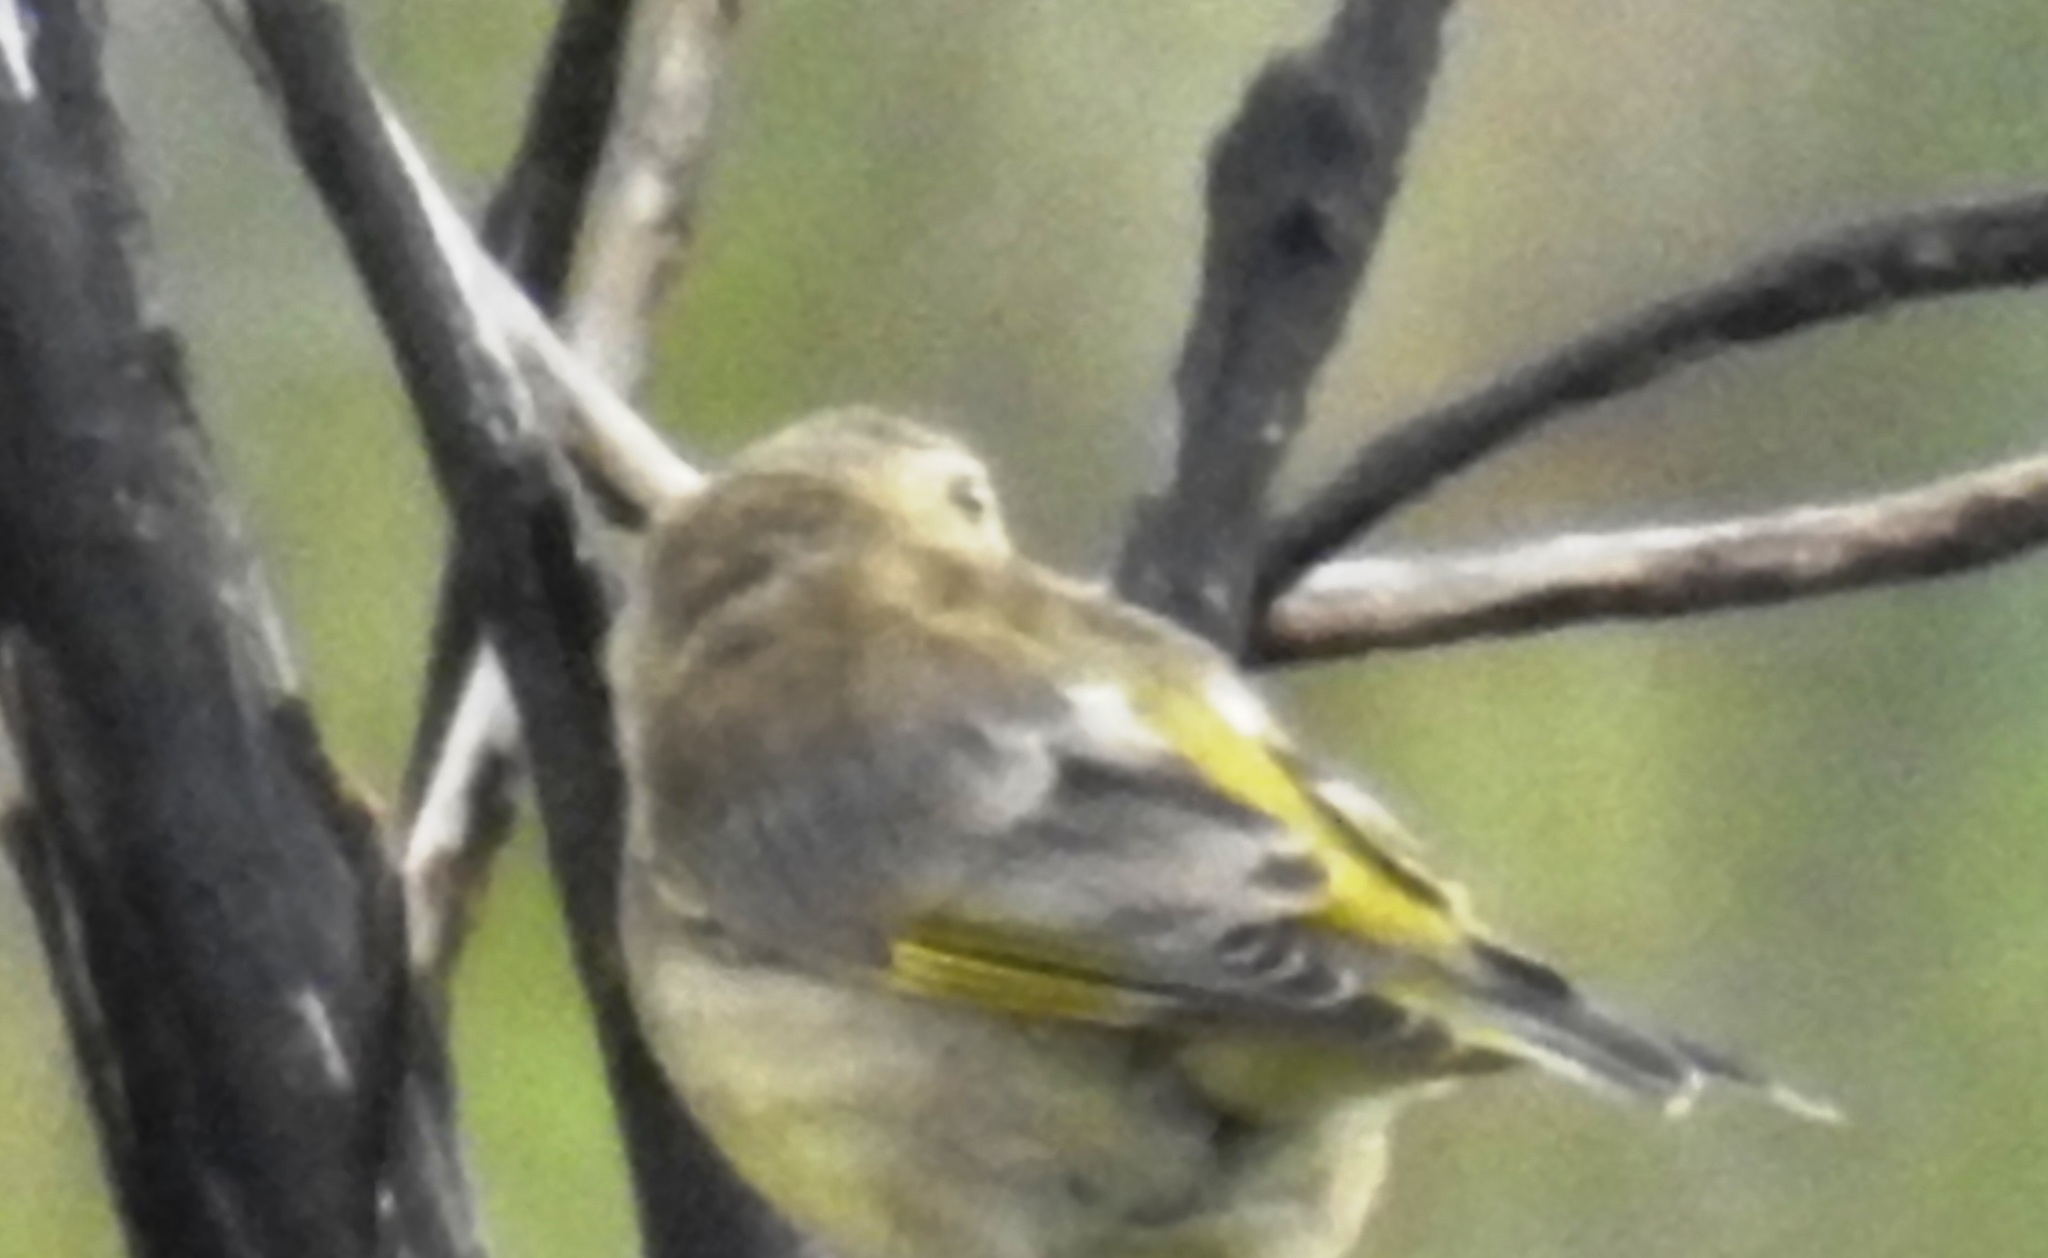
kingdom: Plantae
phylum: Tracheophyta
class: Liliopsida
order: Poales
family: Poaceae
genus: Chloris
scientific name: Chloris chloris
